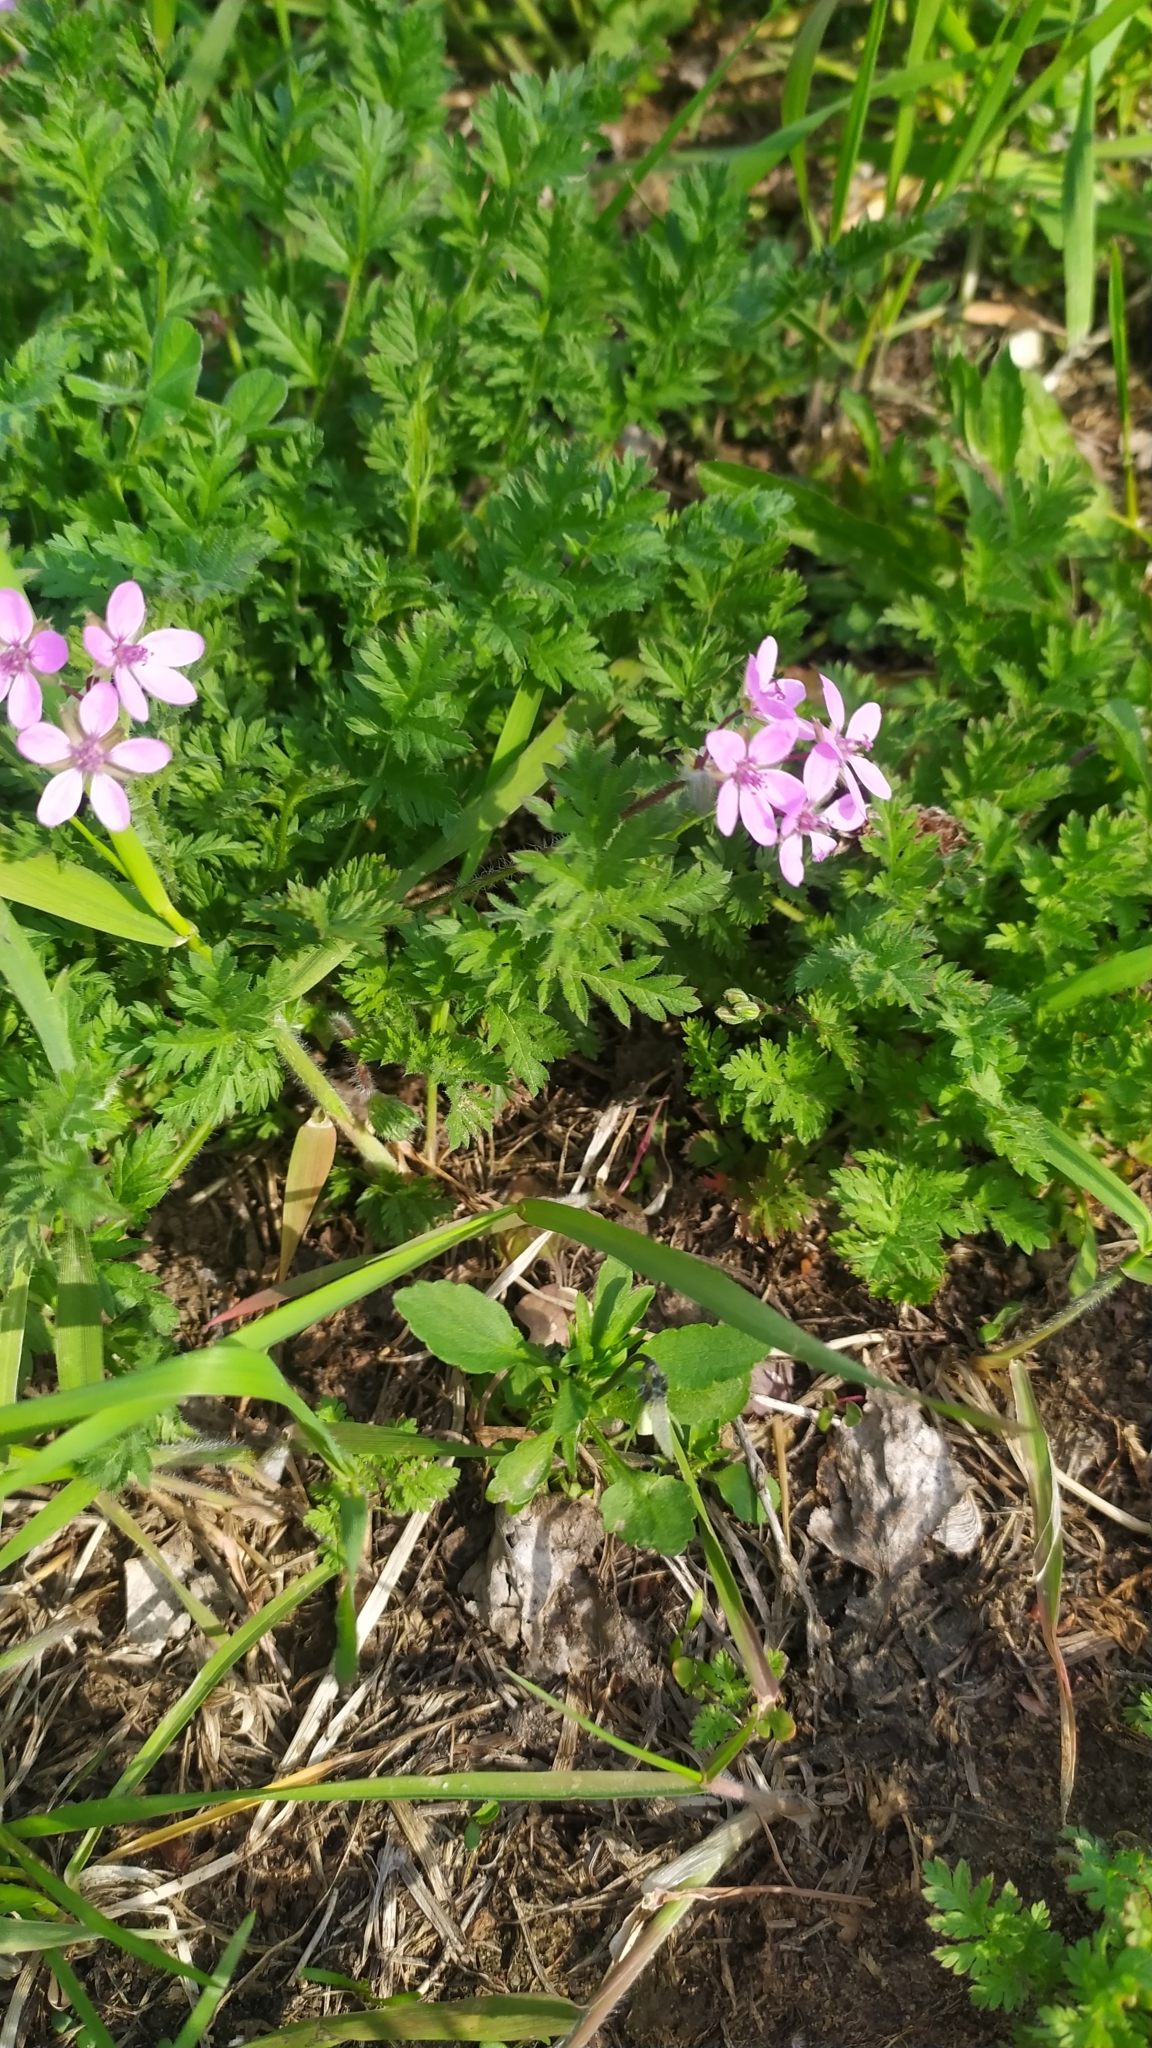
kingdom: Plantae
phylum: Tracheophyta
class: Magnoliopsida
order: Geraniales
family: Geraniaceae
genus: Erodium
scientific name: Erodium cicutarium
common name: Common stork's-bill
